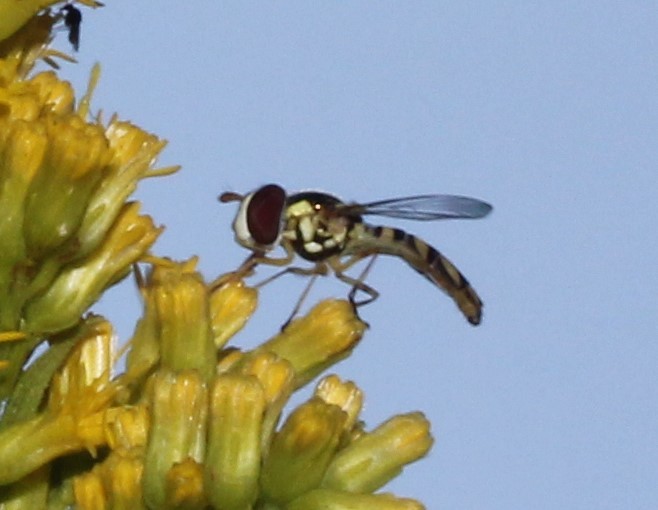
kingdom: Animalia
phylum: Arthropoda
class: Insecta
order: Diptera
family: Syrphidae
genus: Allograpta
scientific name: Allograpta obliqua
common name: Common oblique syrphid
